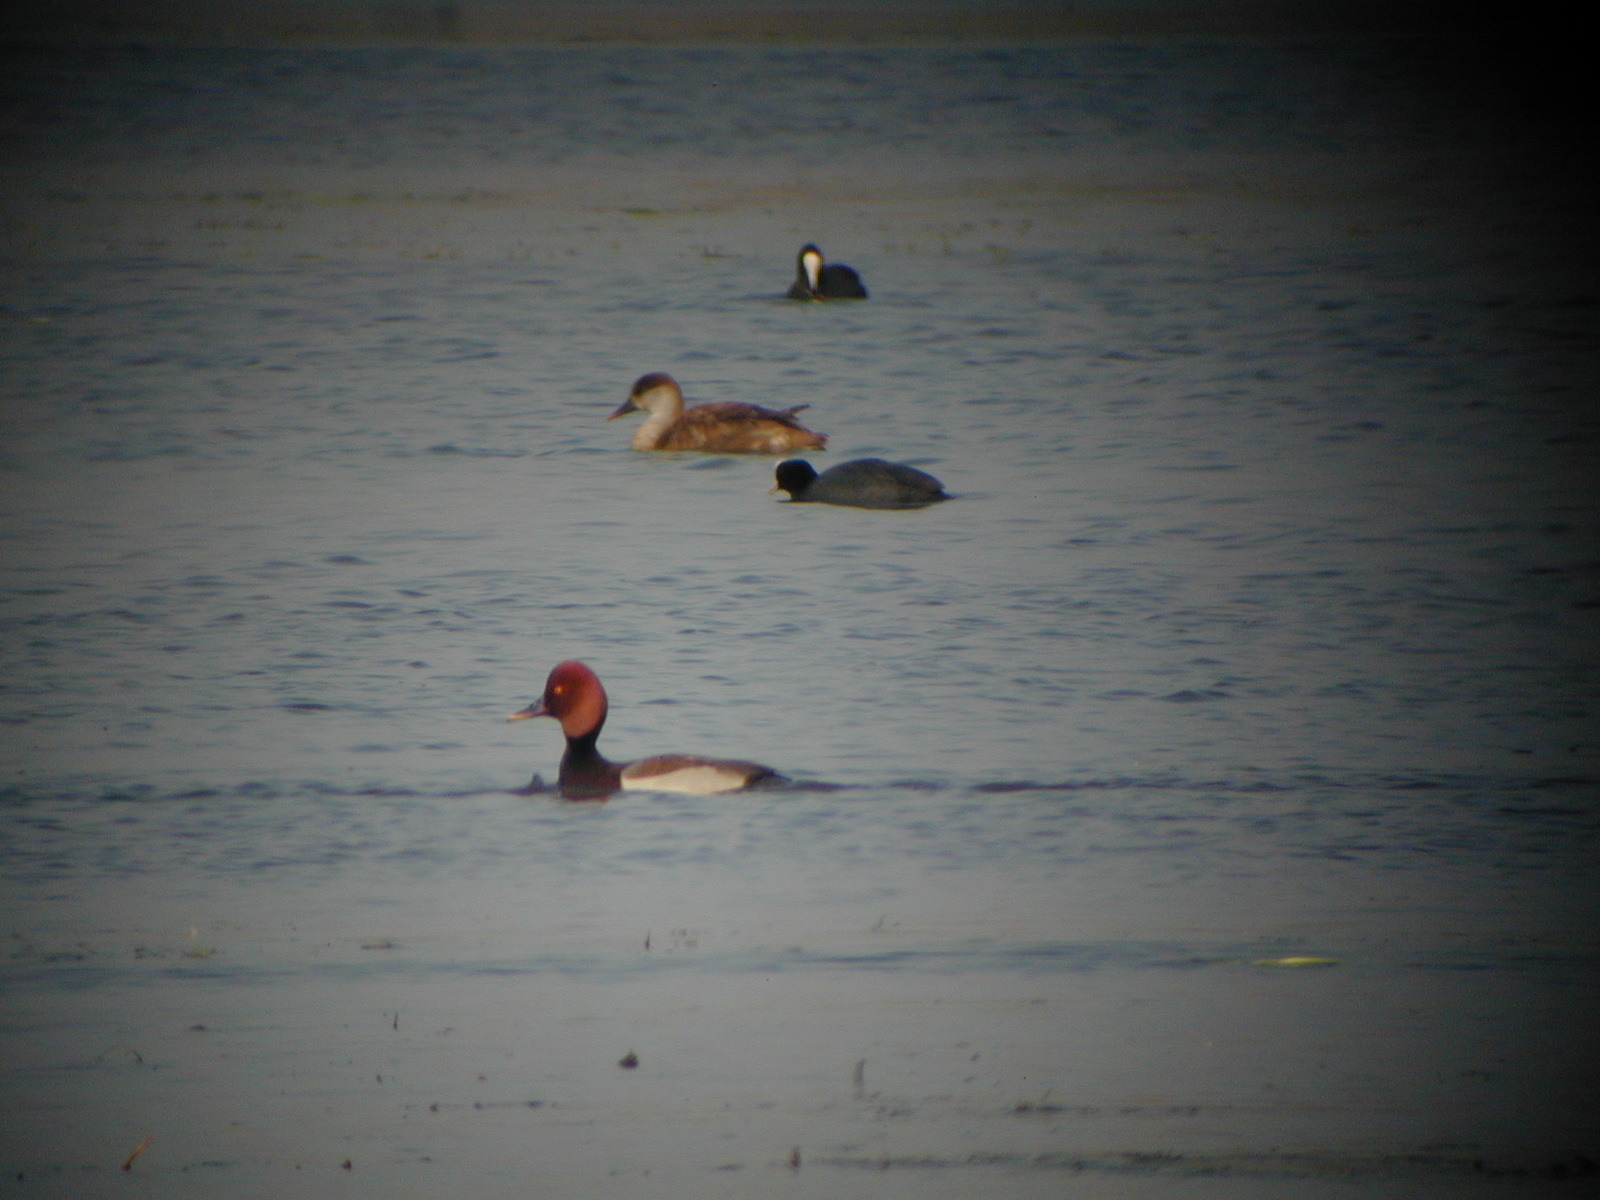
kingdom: Animalia
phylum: Chordata
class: Aves
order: Anseriformes
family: Anatidae
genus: Netta
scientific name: Netta rufina
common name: Red-crested pochard
